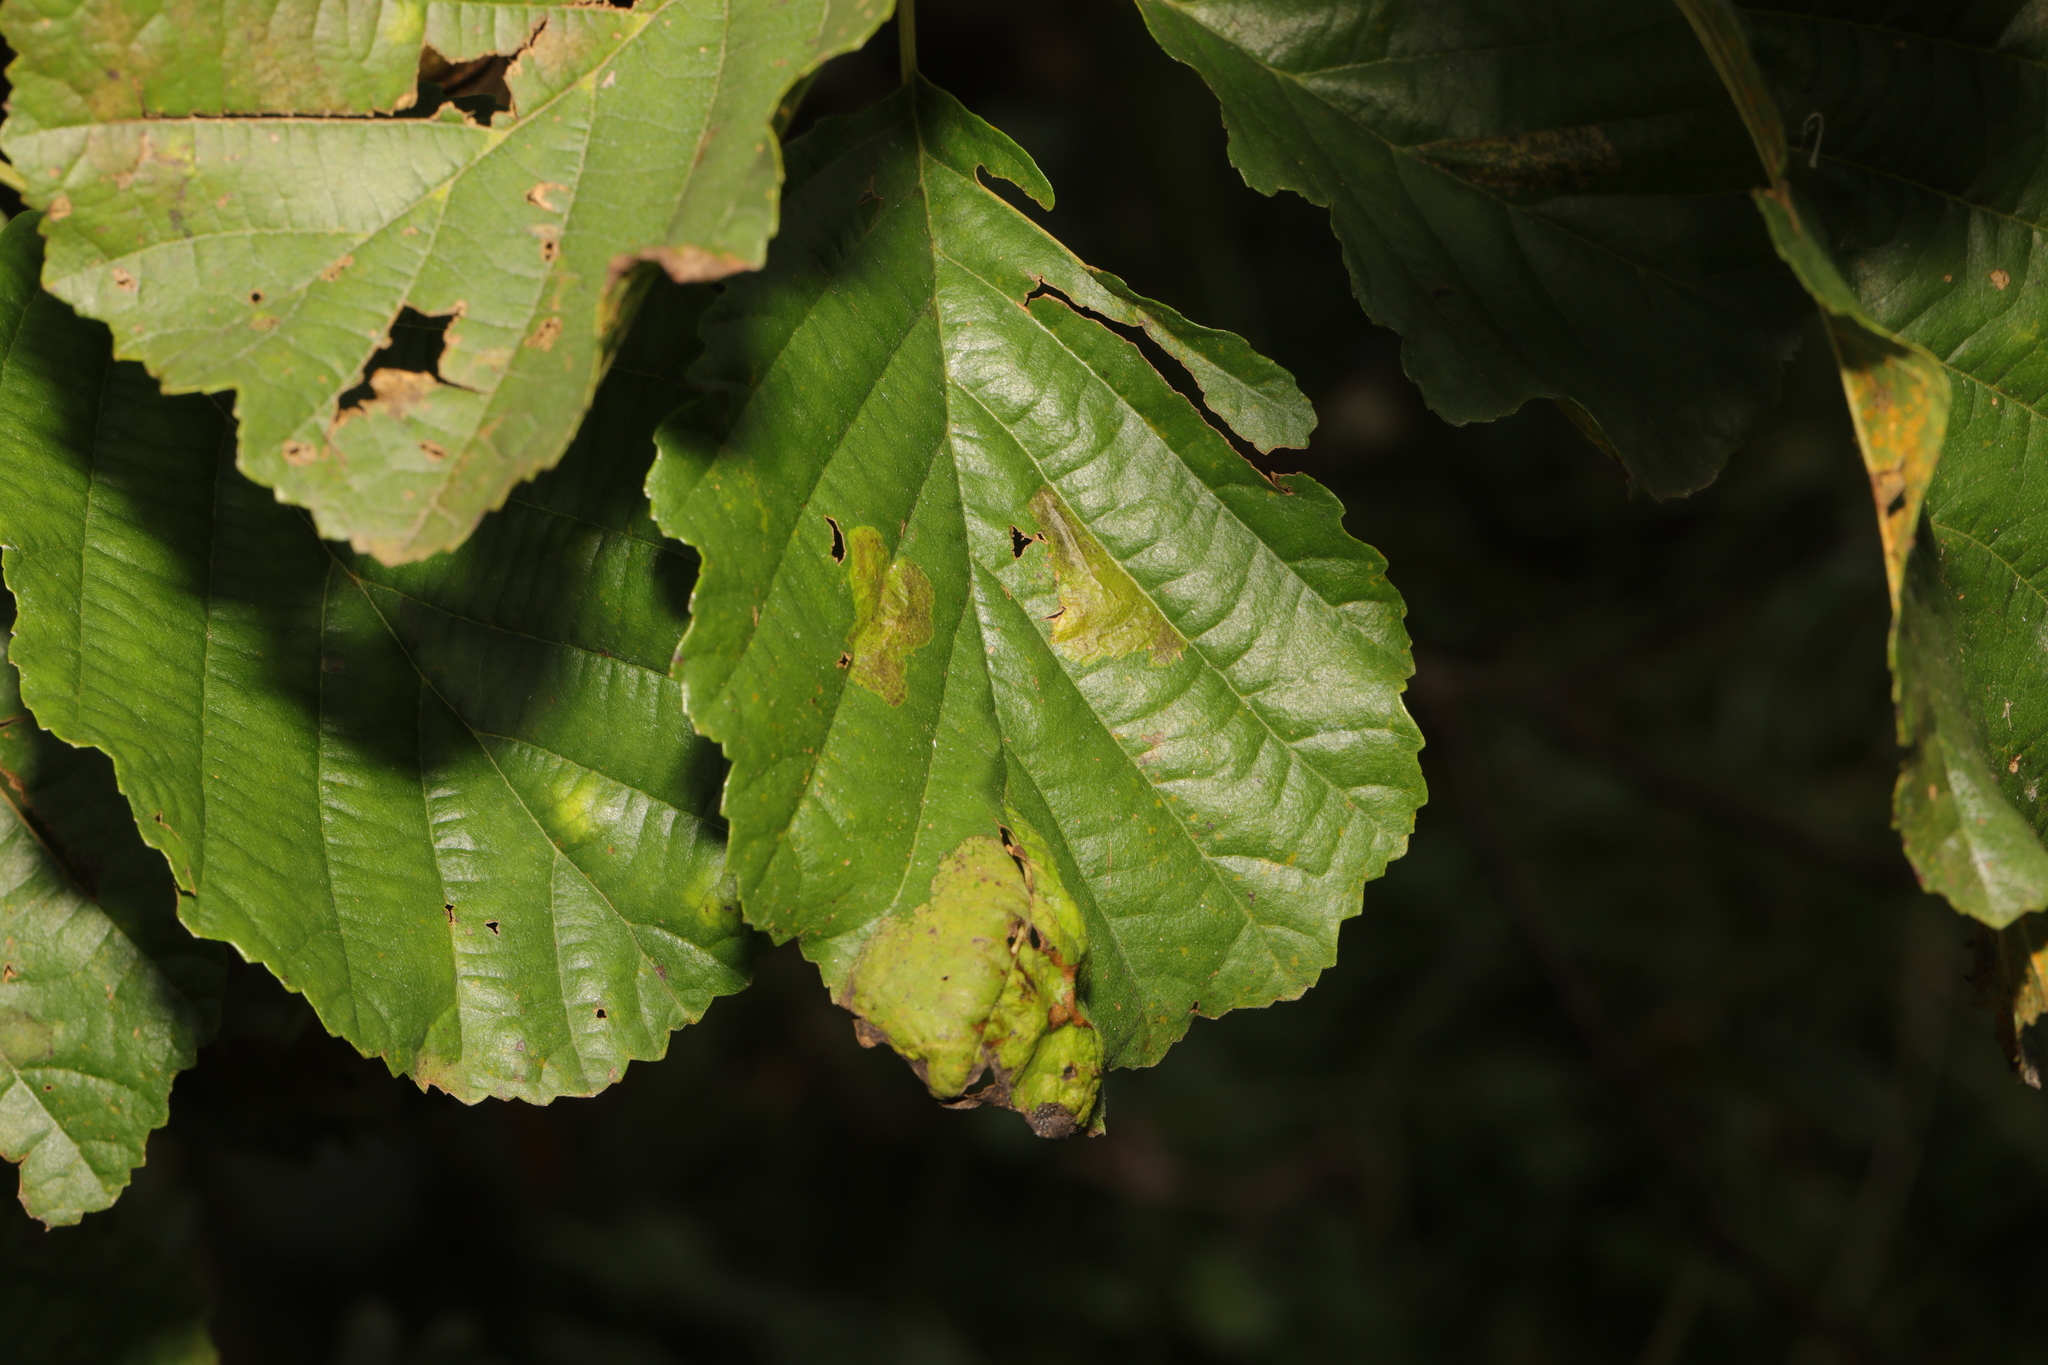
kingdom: Plantae
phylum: Tracheophyta
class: Magnoliopsida
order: Fagales
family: Betulaceae
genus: Alnus
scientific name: Alnus glutinosa
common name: Black alder
